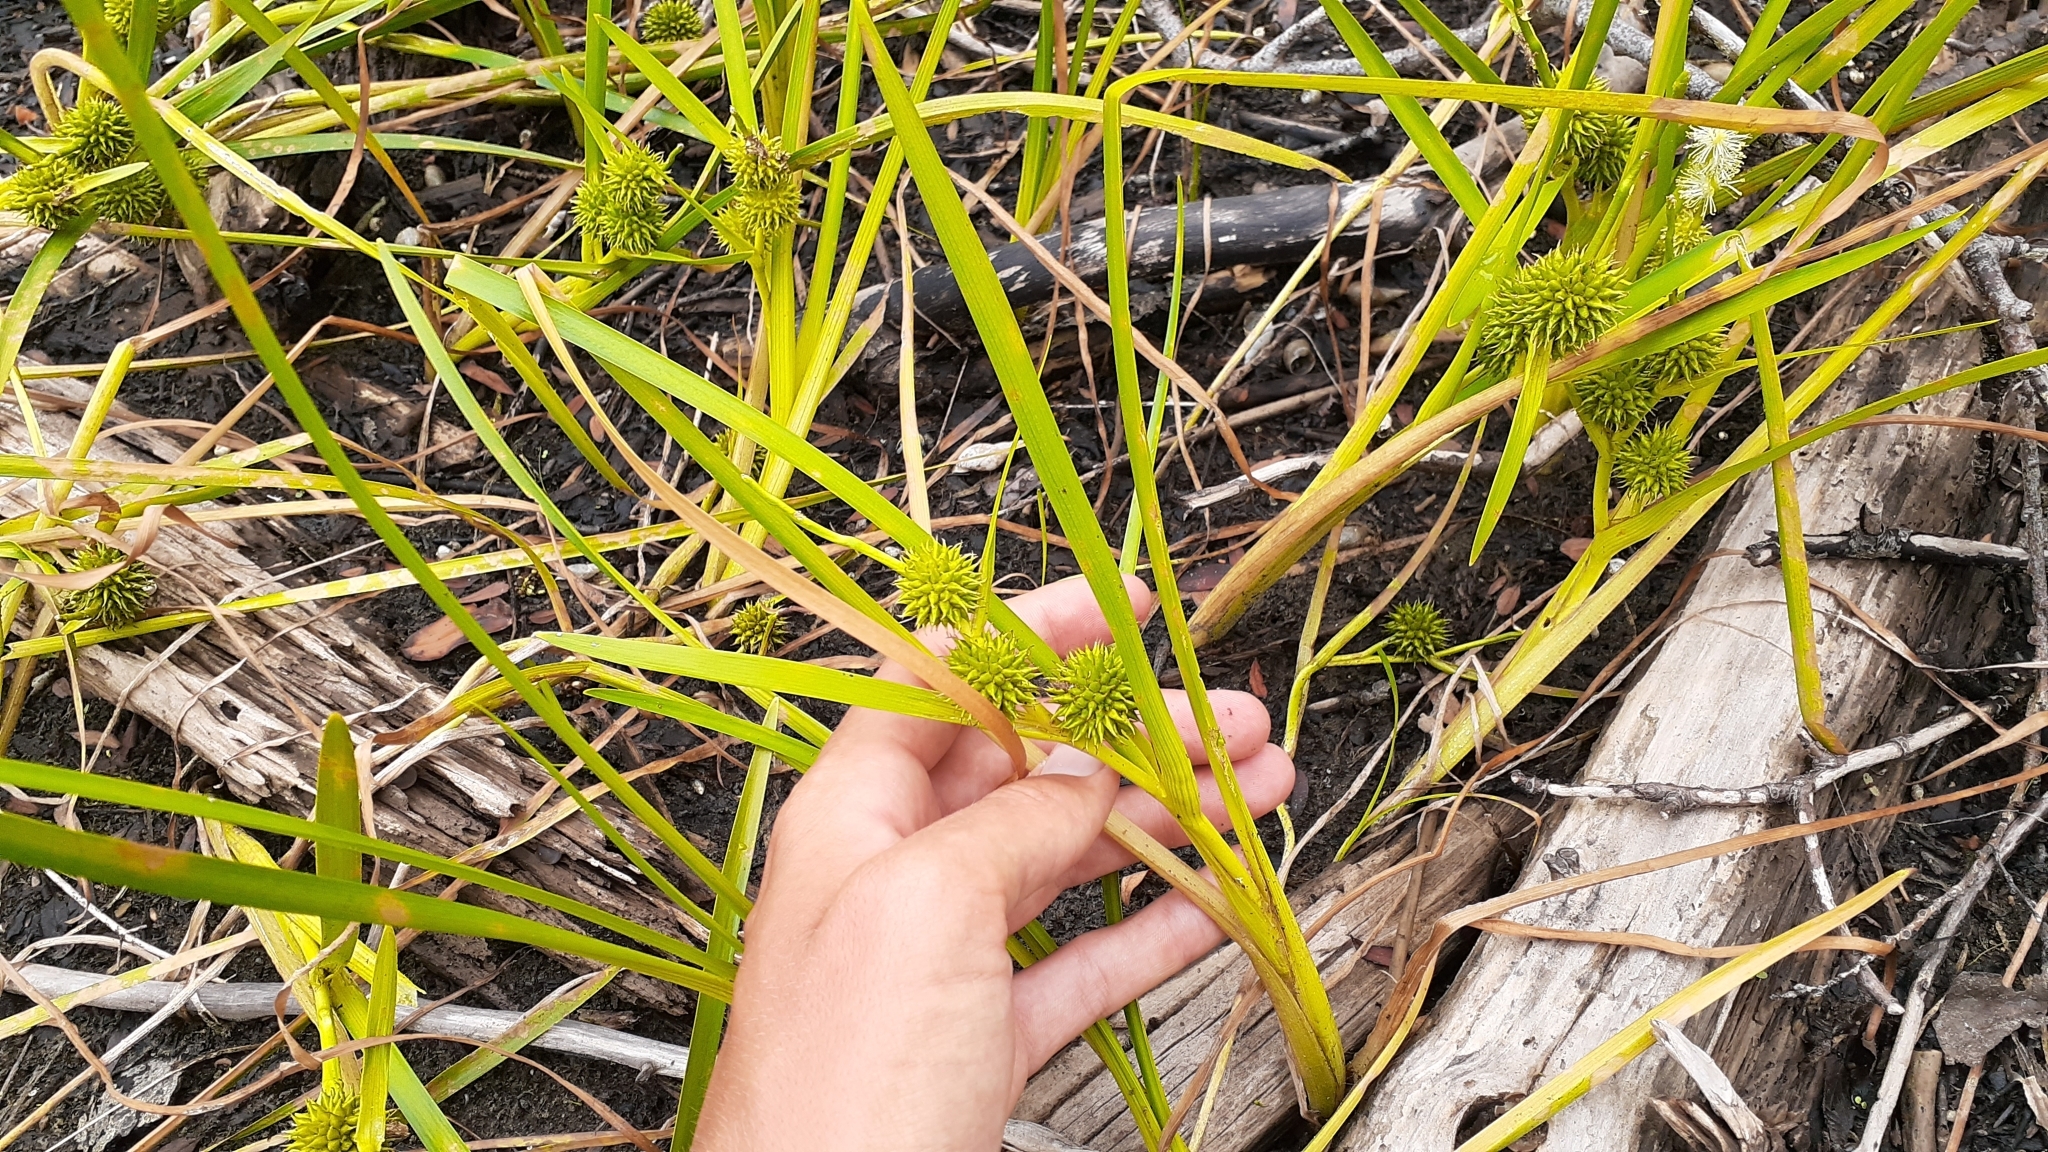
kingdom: Plantae
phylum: Tracheophyta
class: Liliopsida
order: Poales
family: Typhaceae
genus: Sparganium
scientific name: Sparganium emersum
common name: Unbranched bur-reed
